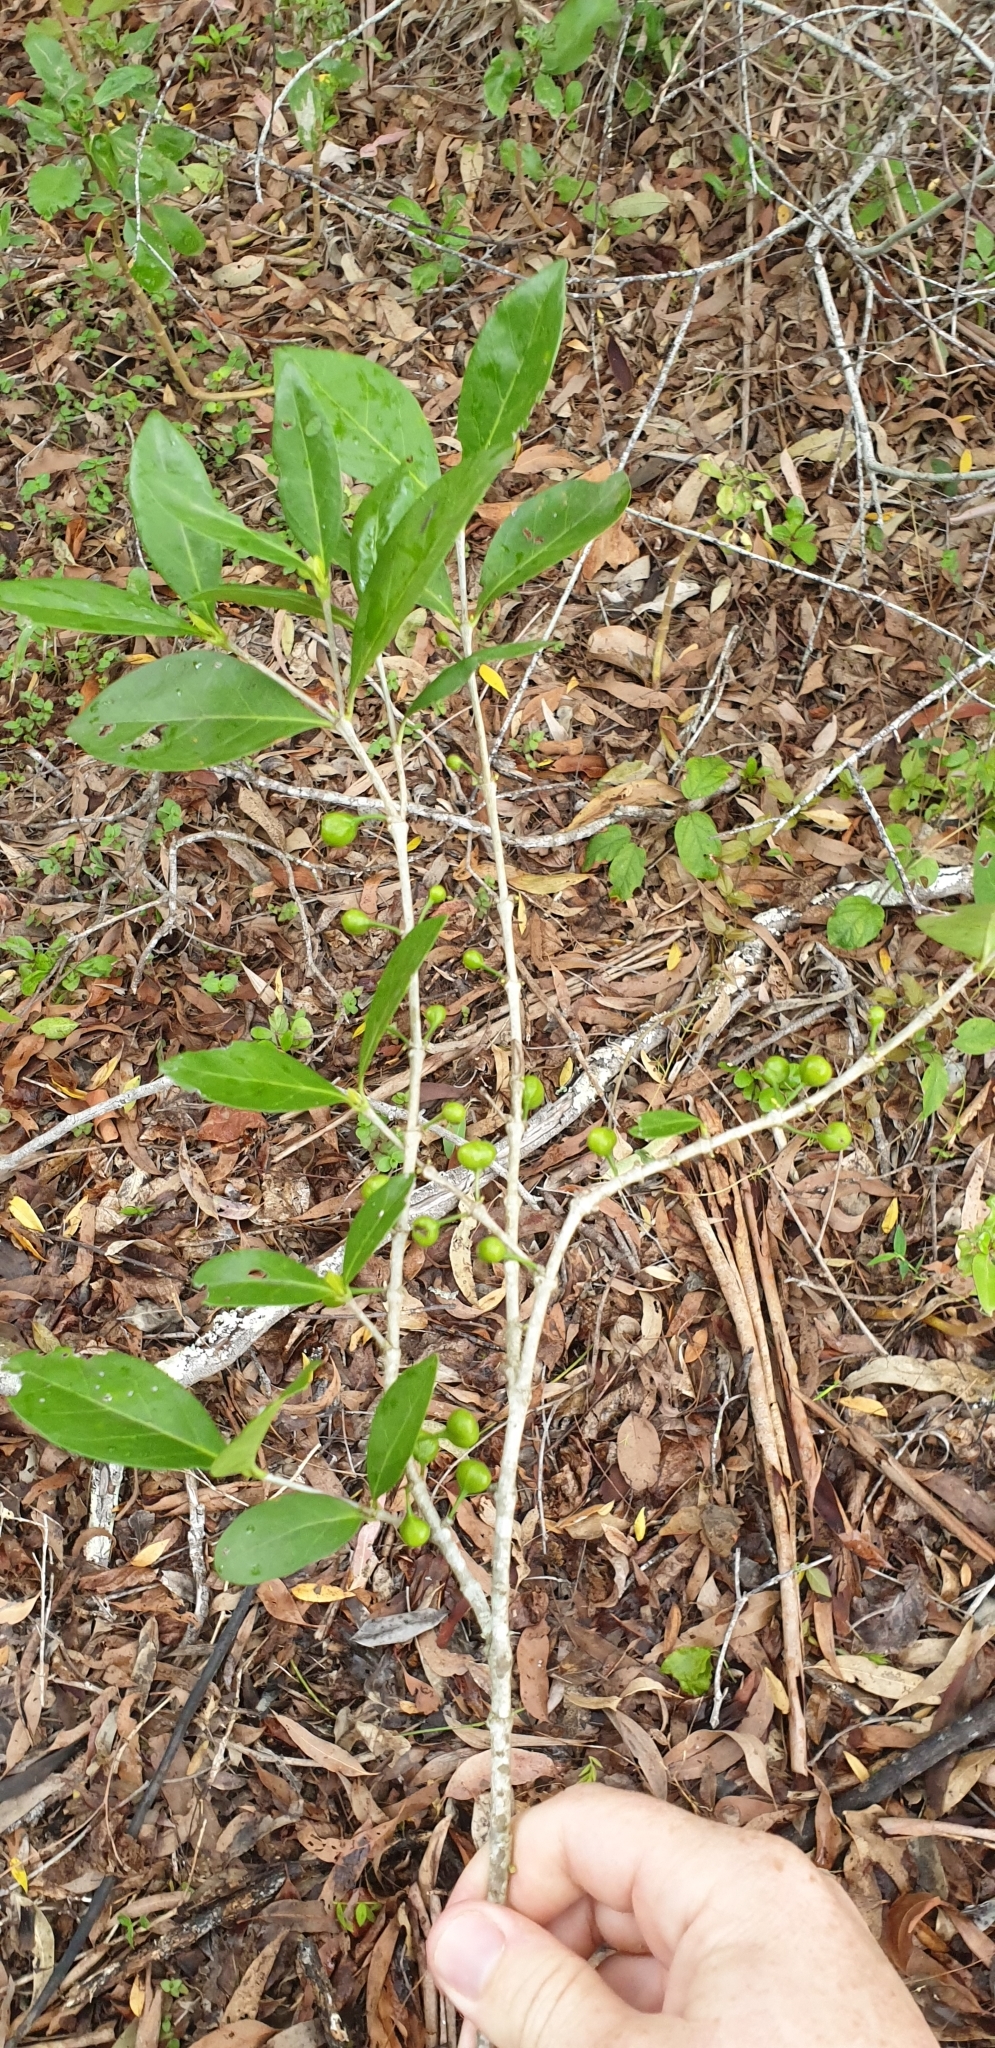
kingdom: Plantae
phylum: Tracheophyta
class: Magnoliopsida
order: Gentianales
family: Rubiaceae
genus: Cyclophyllum
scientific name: Cyclophyllum coprosmoides
